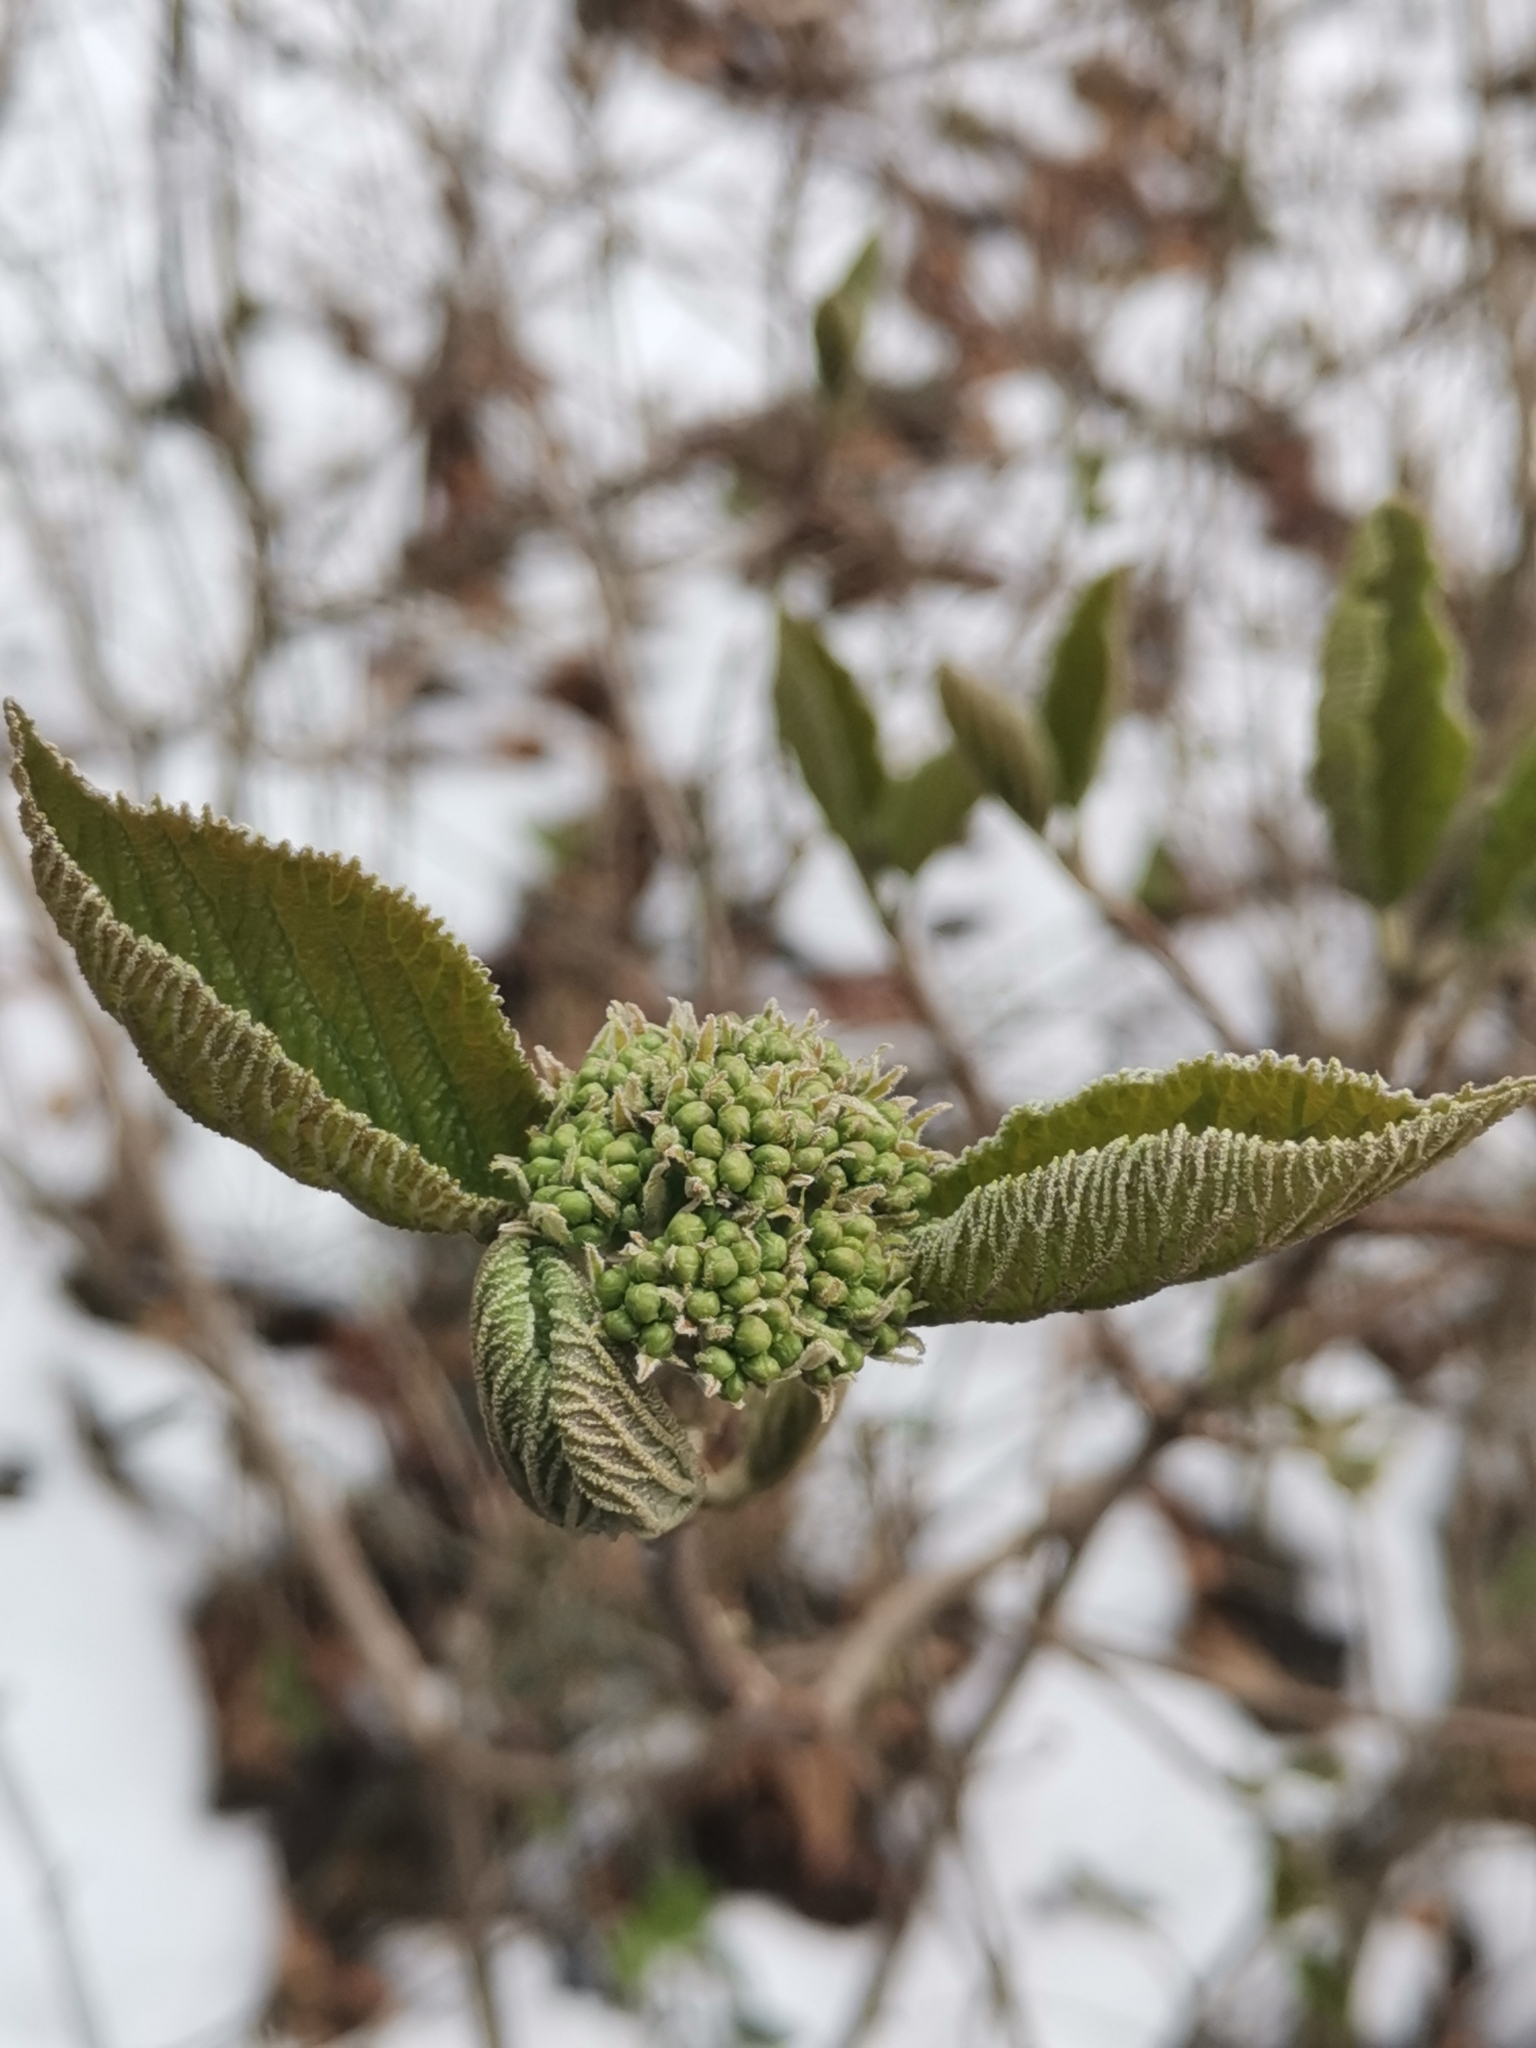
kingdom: Plantae
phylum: Tracheophyta
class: Magnoliopsida
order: Dipsacales
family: Viburnaceae
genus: Viburnum
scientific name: Viburnum lantana
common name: Wayfaring tree
